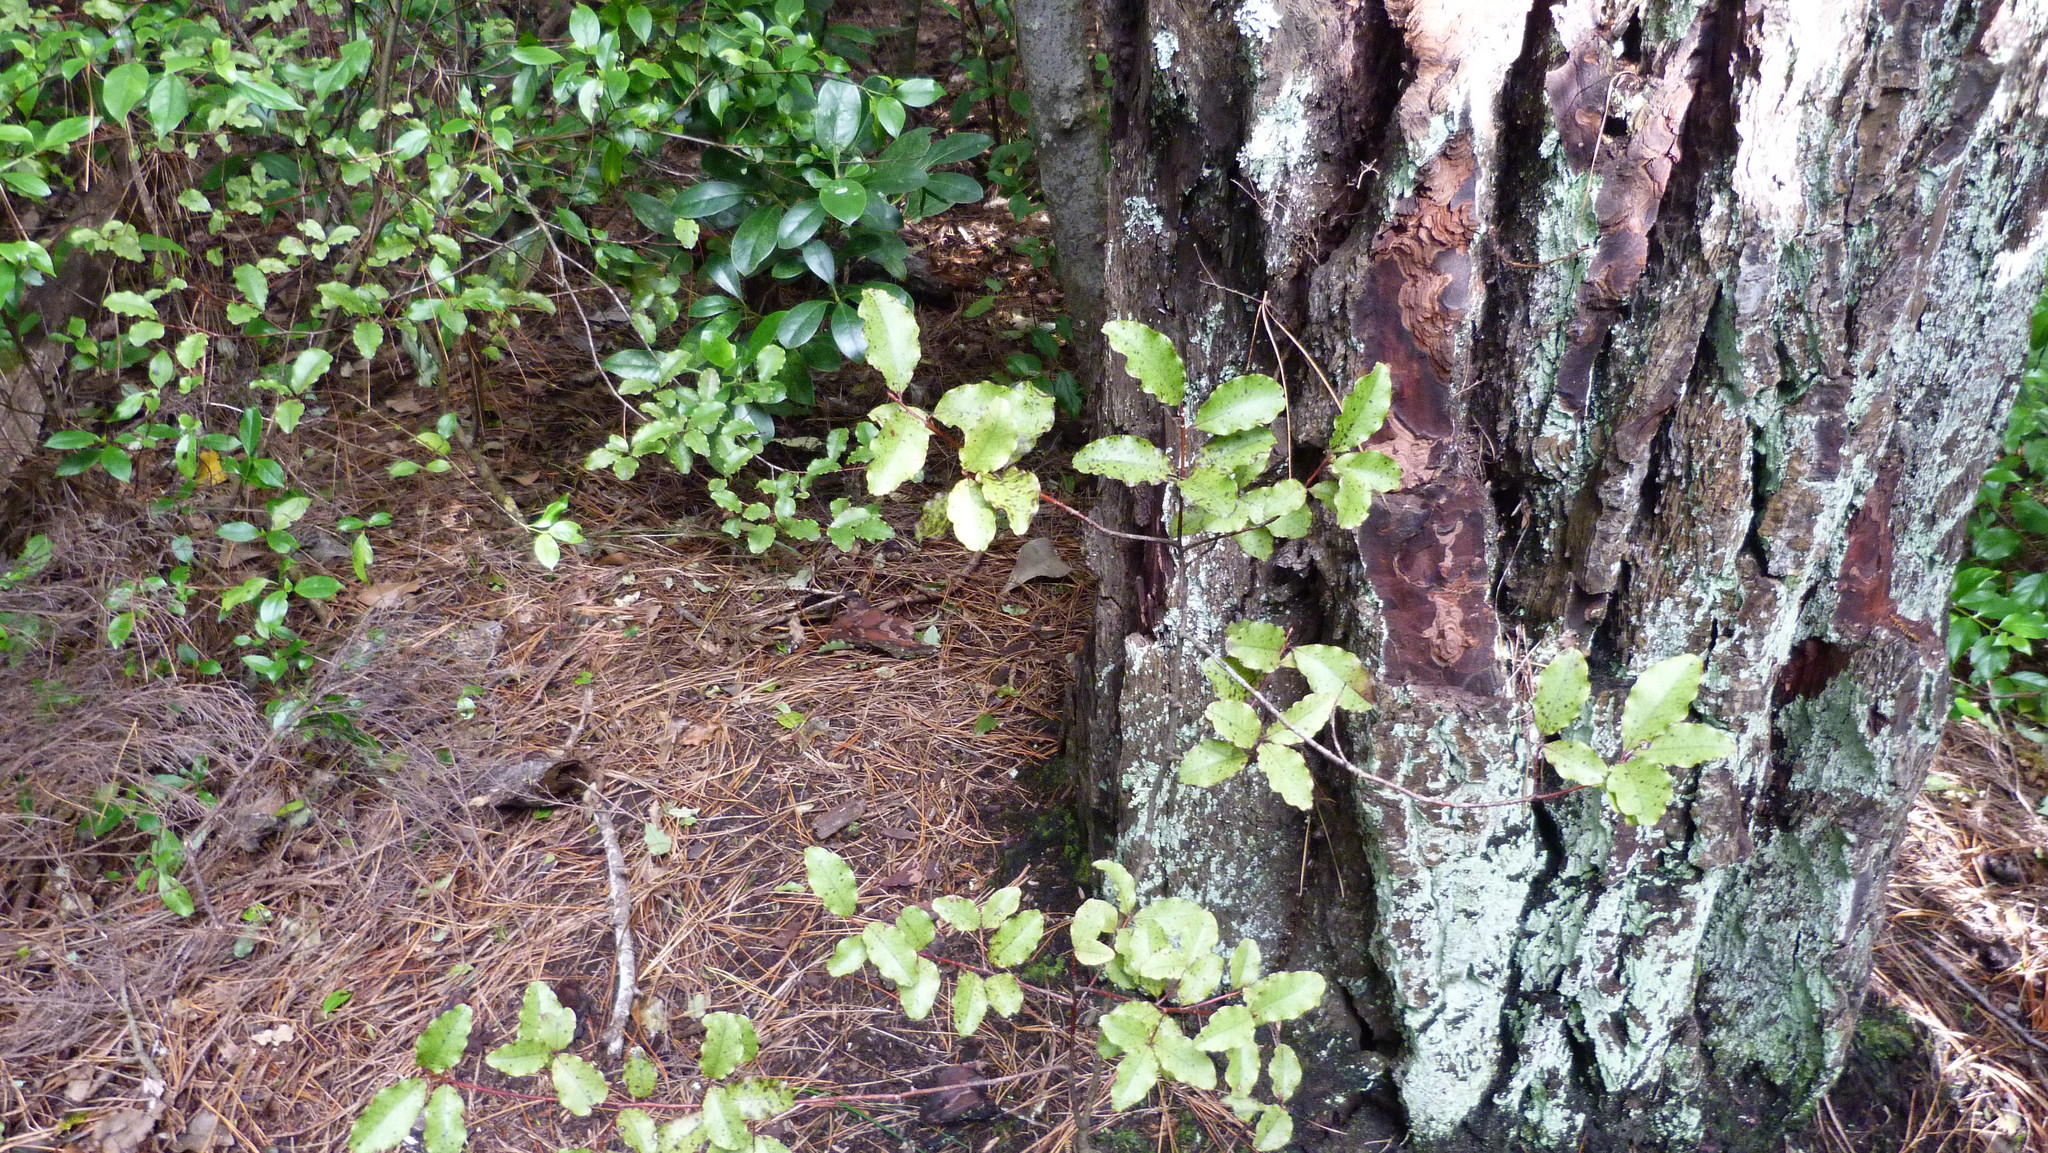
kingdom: Plantae
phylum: Tracheophyta
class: Magnoliopsida
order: Ericales
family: Primulaceae
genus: Myrsine
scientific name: Myrsine australis
